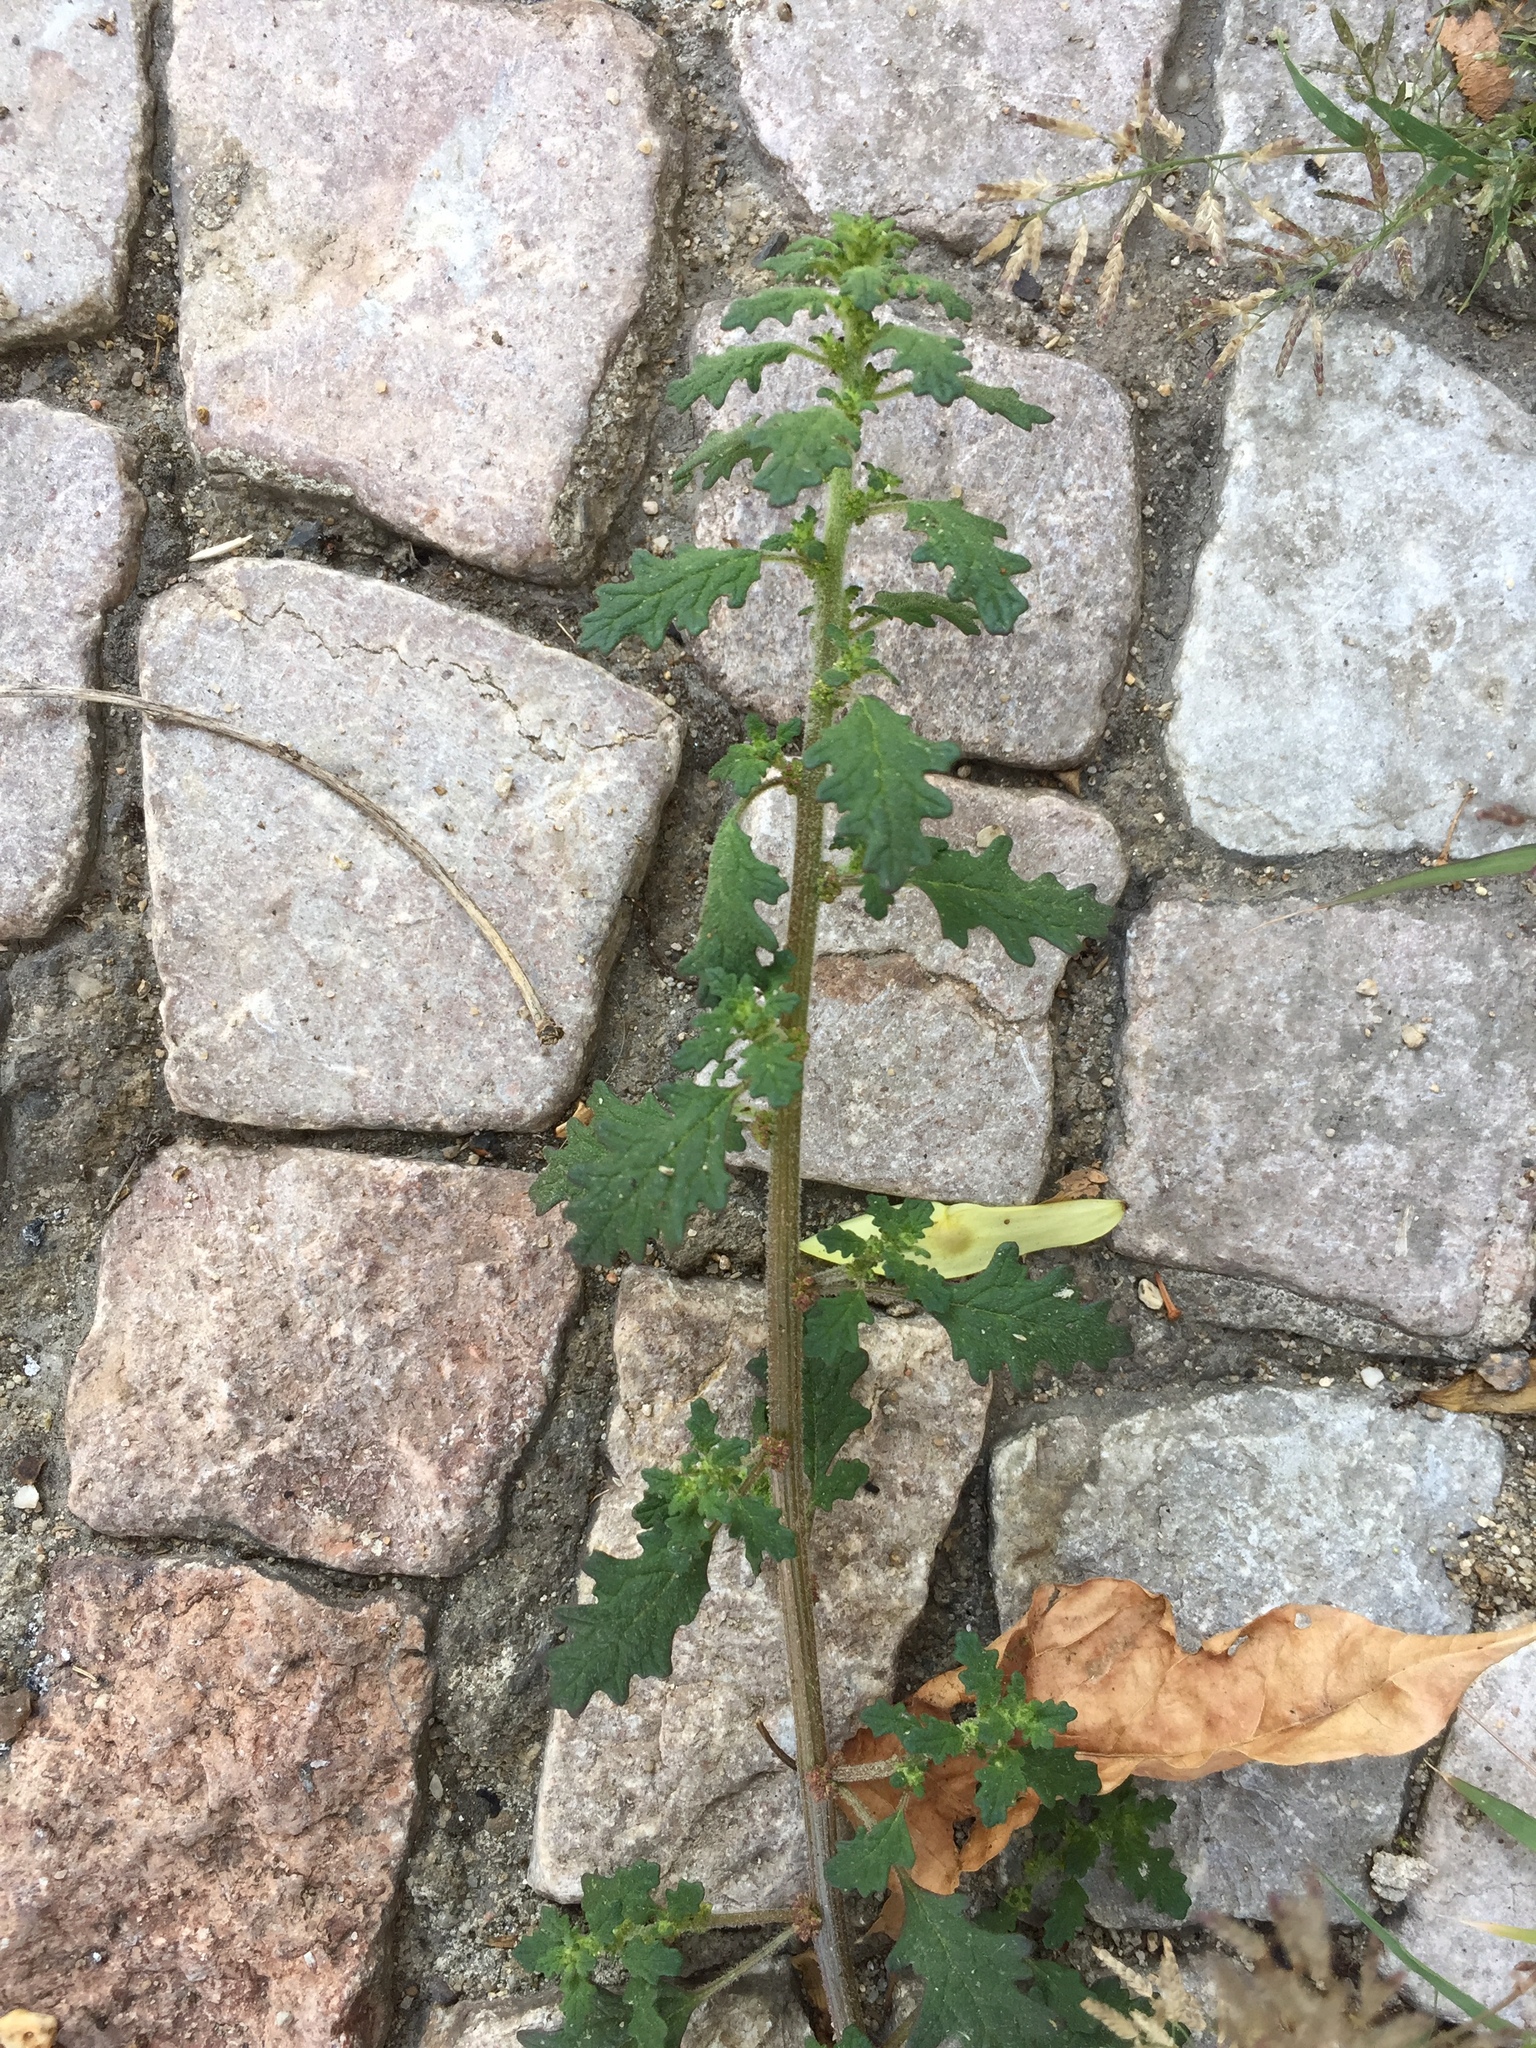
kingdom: Plantae
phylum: Tracheophyta
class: Magnoliopsida
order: Caryophyllales
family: Amaranthaceae
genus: Dysphania
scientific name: Dysphania pumilio
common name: Clammy goosefoot
